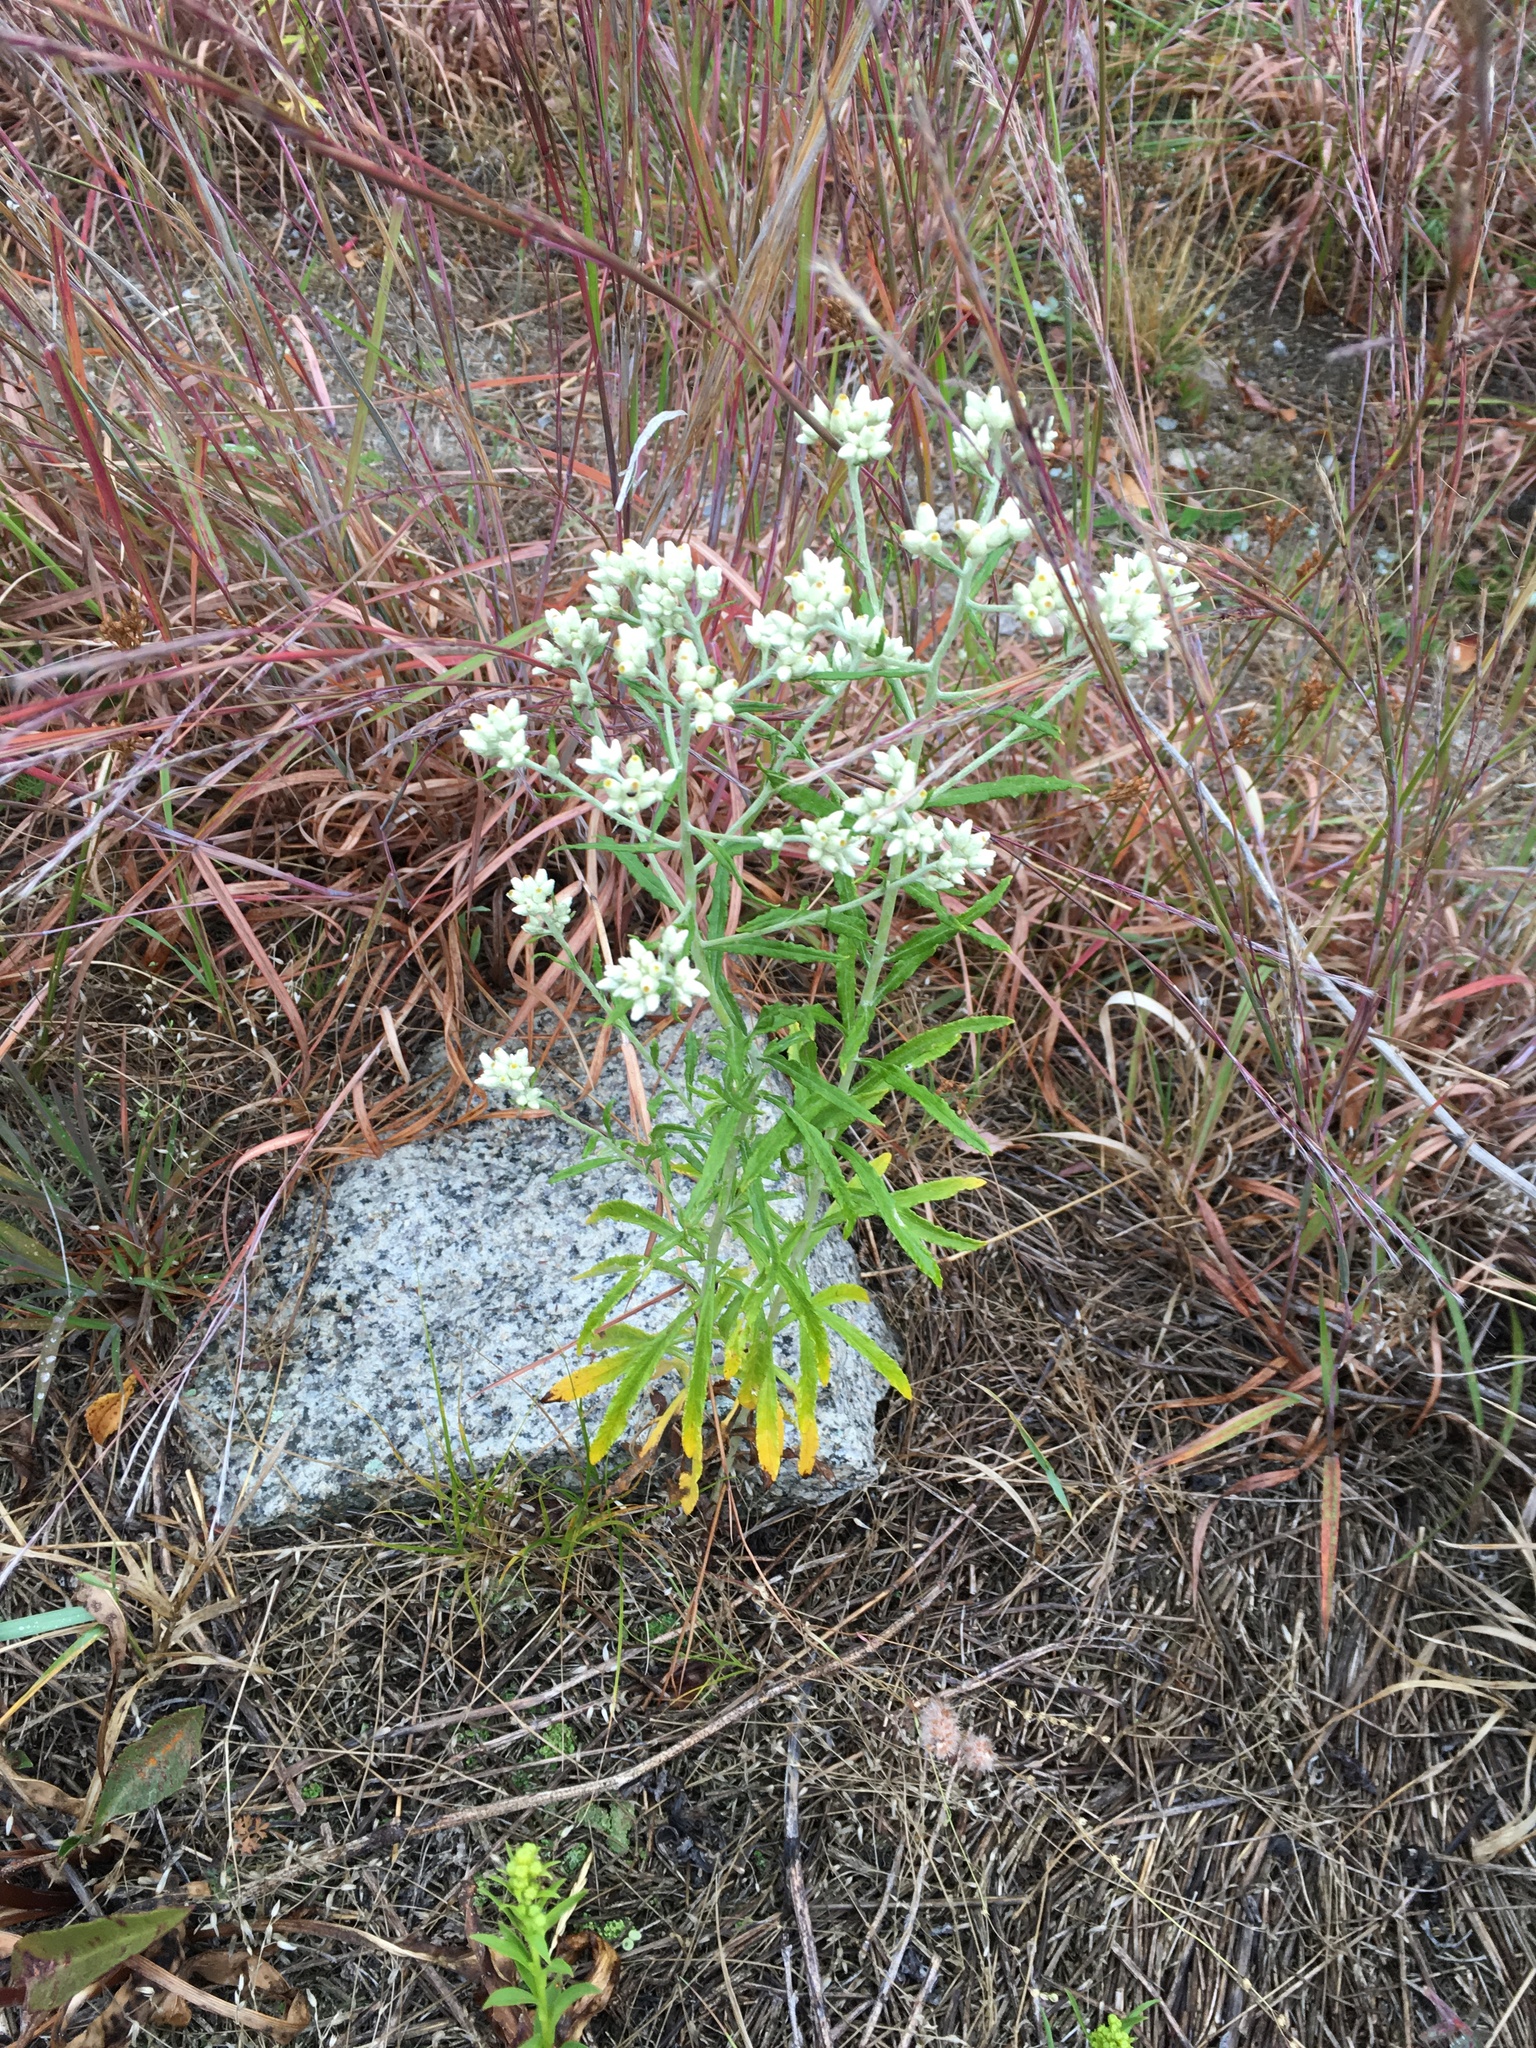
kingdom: Plantae
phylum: Tracheophyta
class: Magnoliopsida
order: Asterales
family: Asteraceae
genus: Pseudognaphalium
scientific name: Pseudognaphalium obtusifolium
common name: Eastern rabbit-tobacco
